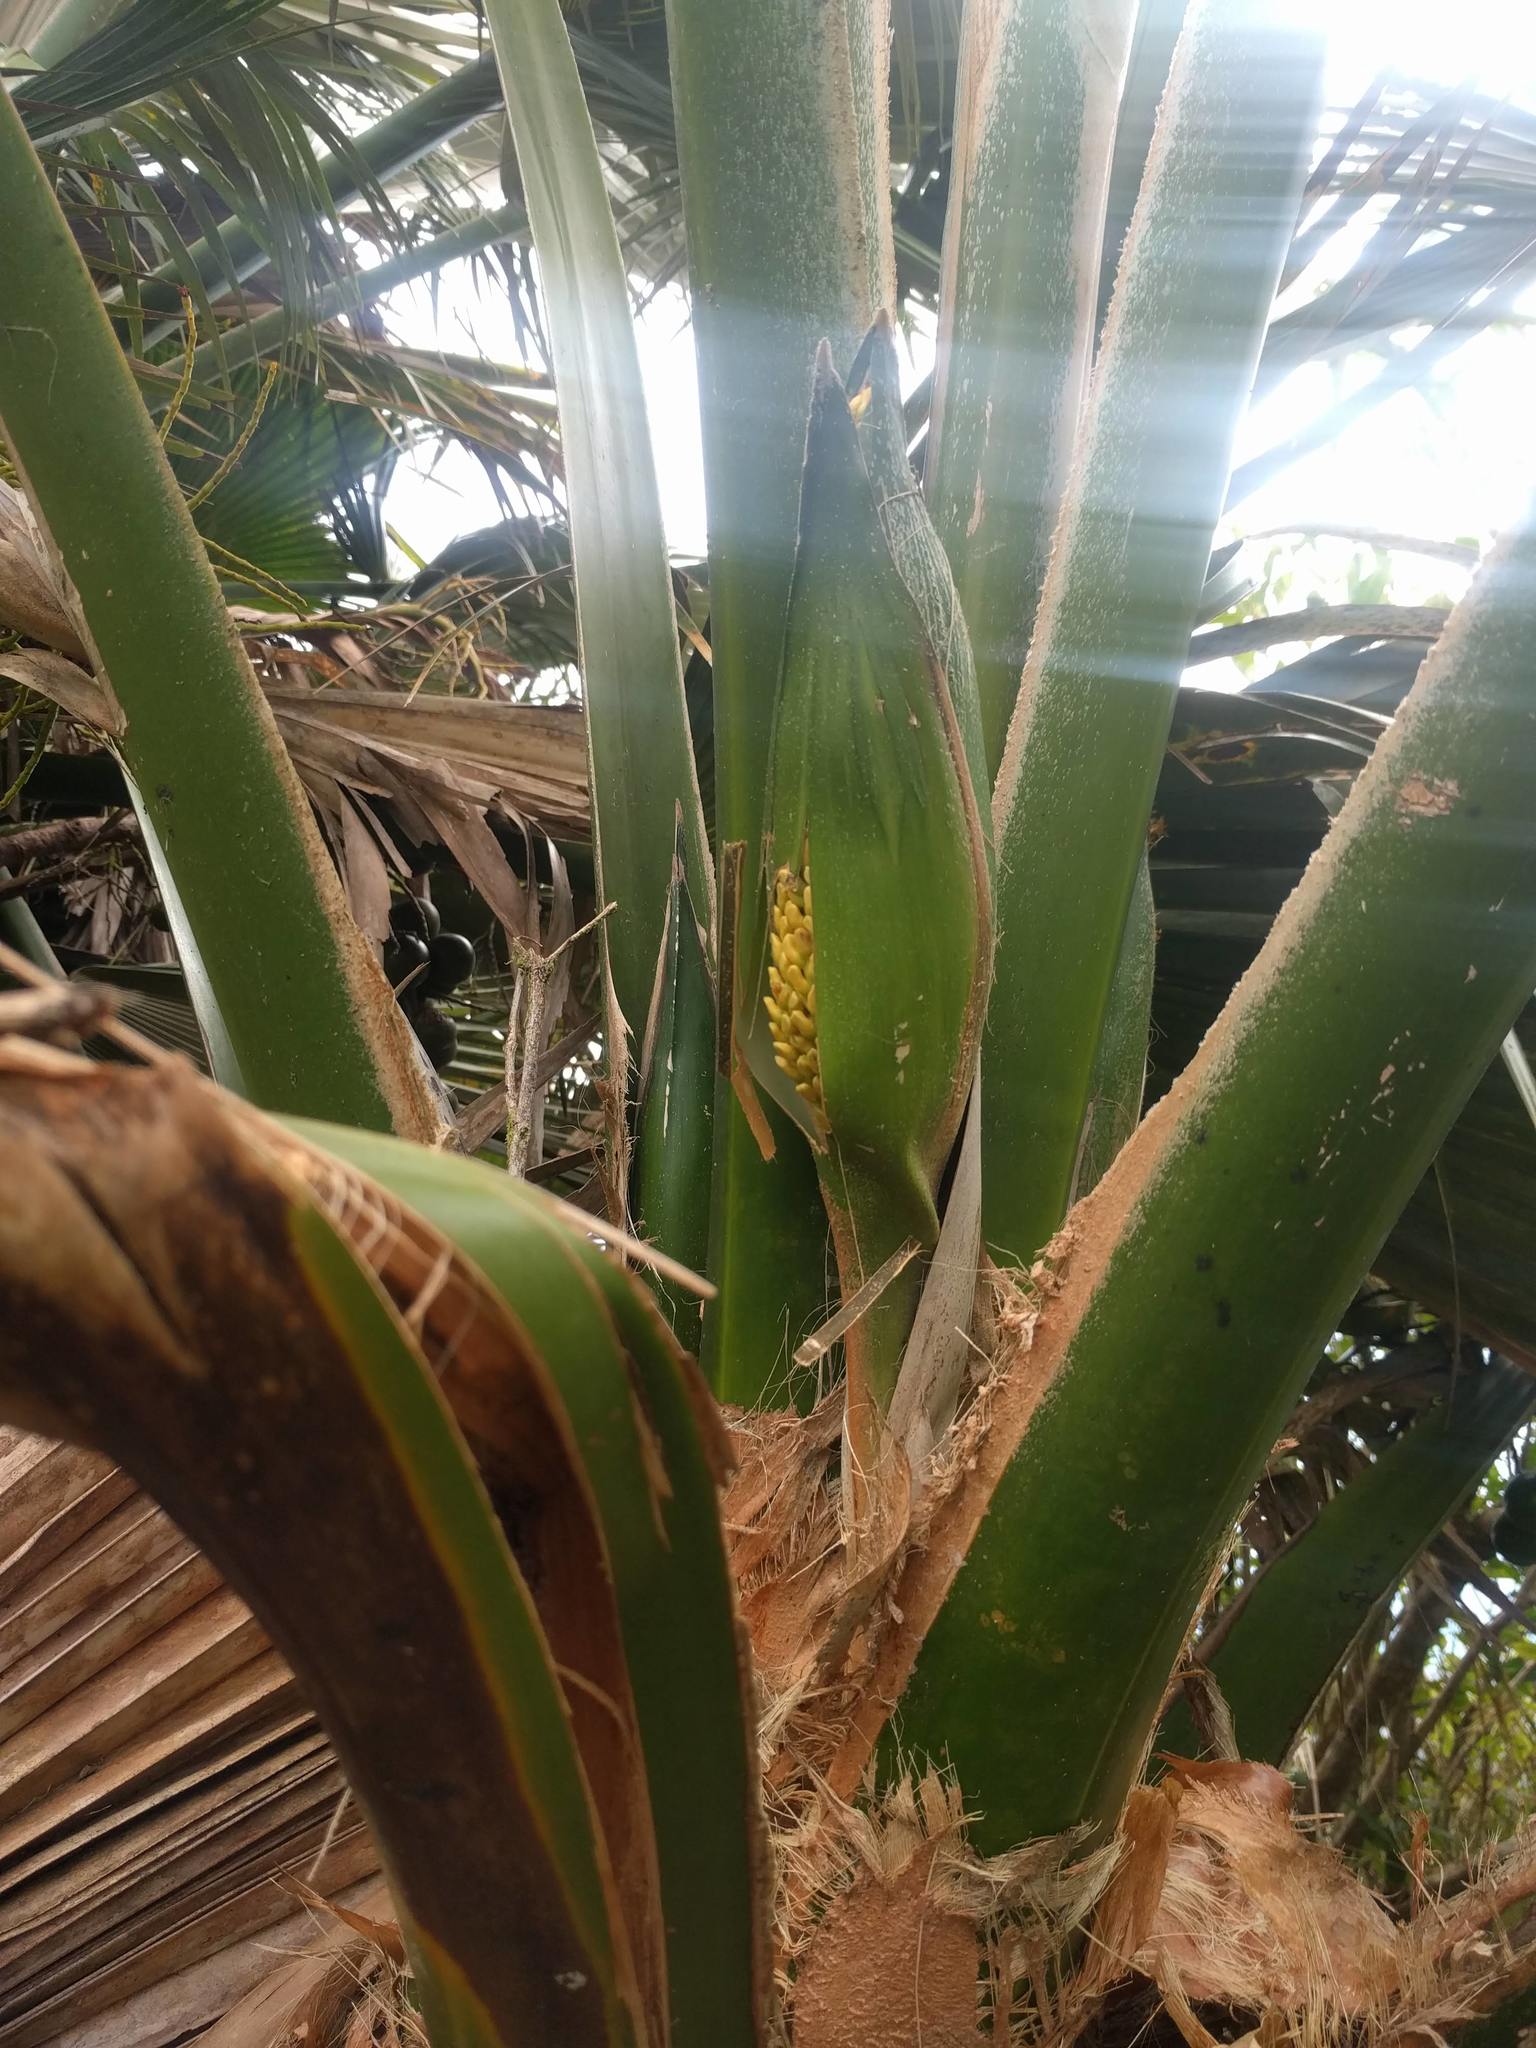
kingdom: Plantae
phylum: Tracheophyta
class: Liliopsida
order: Arecales
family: Arecaceae
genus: Pritchardia
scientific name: Pritchardia martii
